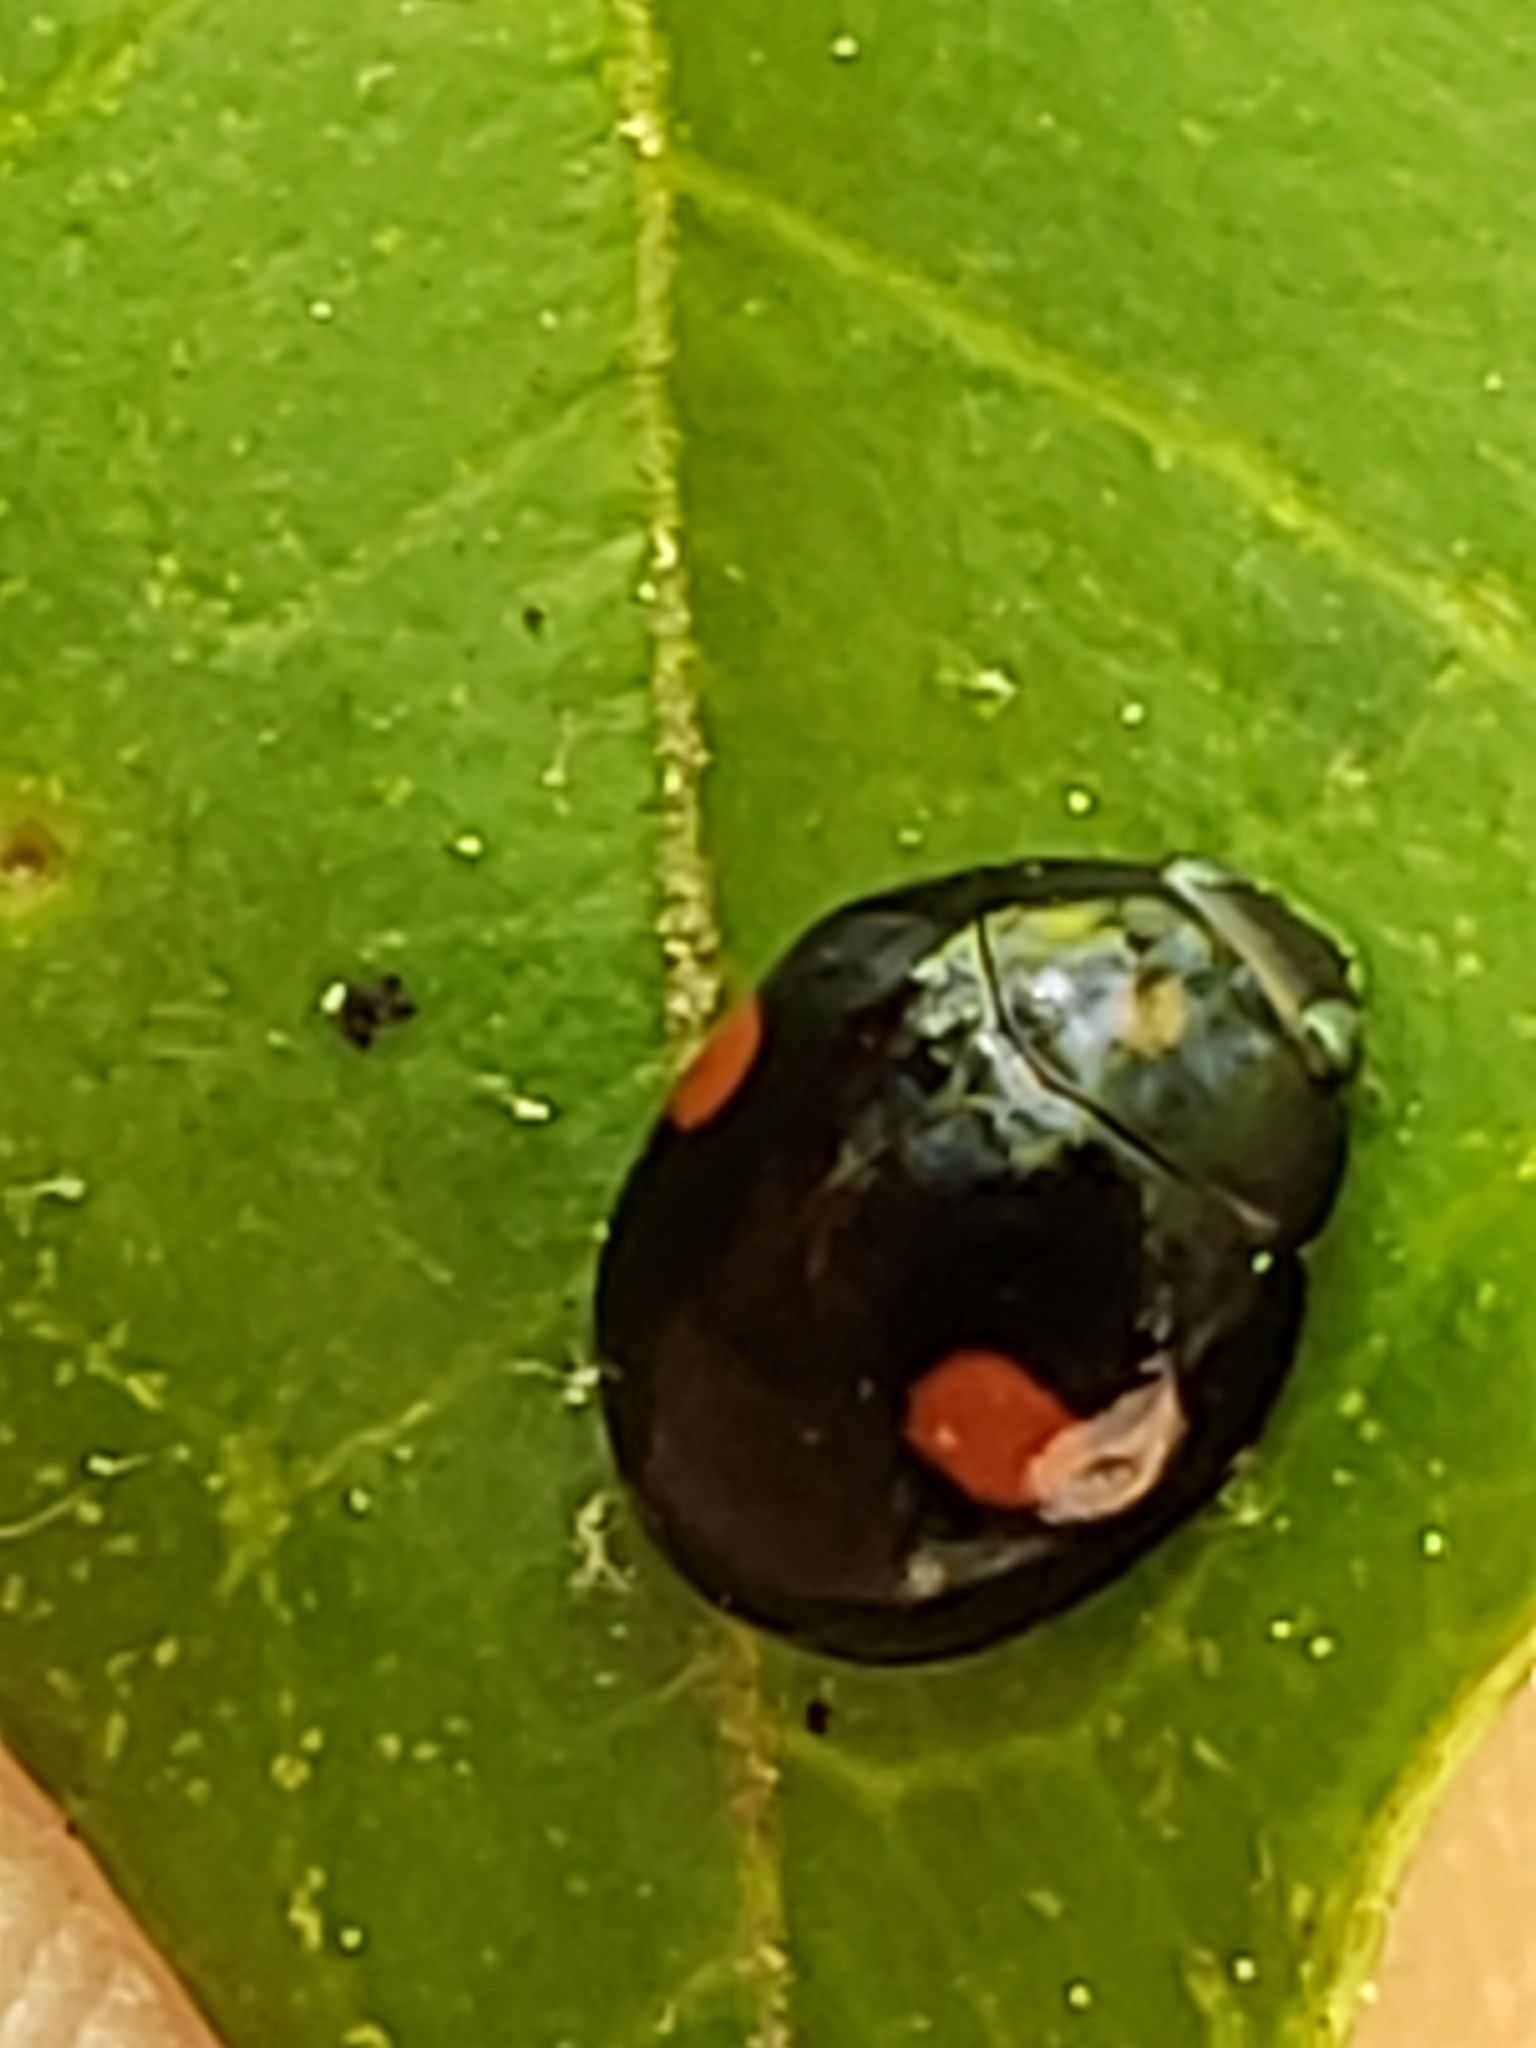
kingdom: Animalia
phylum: Arthropoda
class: Insecta
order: Coleoptera
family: Coccinellidae
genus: Hyperaspis
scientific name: Hyperaspis
